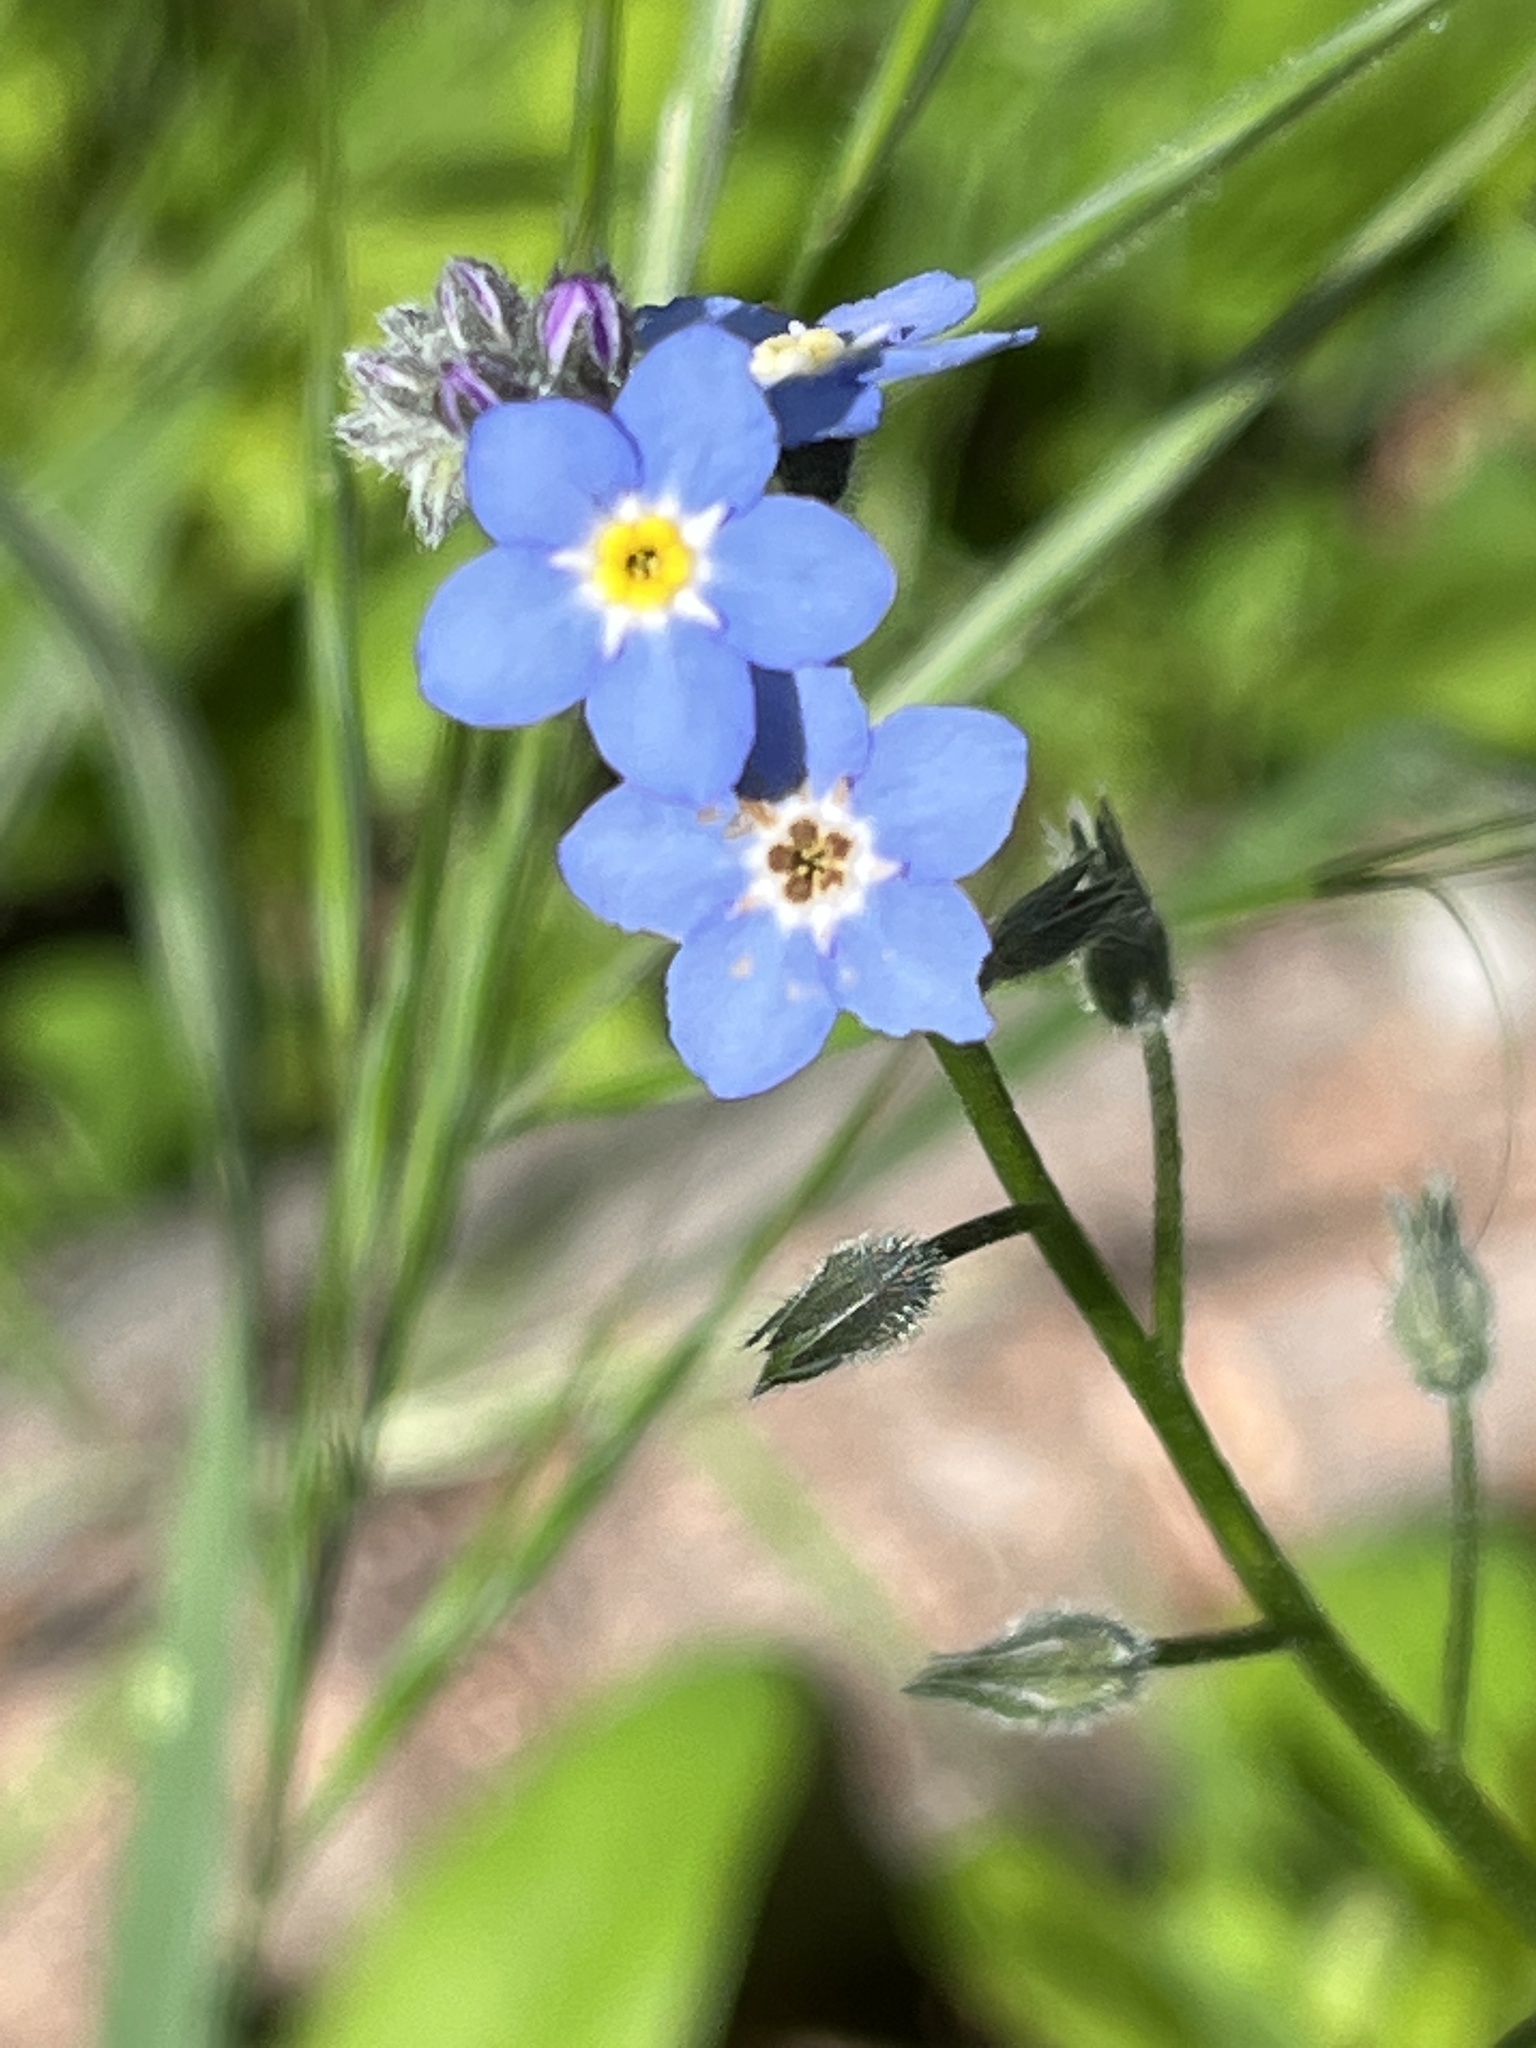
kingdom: Plantae
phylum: Tracheophyta
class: Magnoliopsida
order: Boraginales
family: Boraginaceae
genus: Myosotis
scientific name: Myosotis latifolia
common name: Broadleaf forget-me-not
